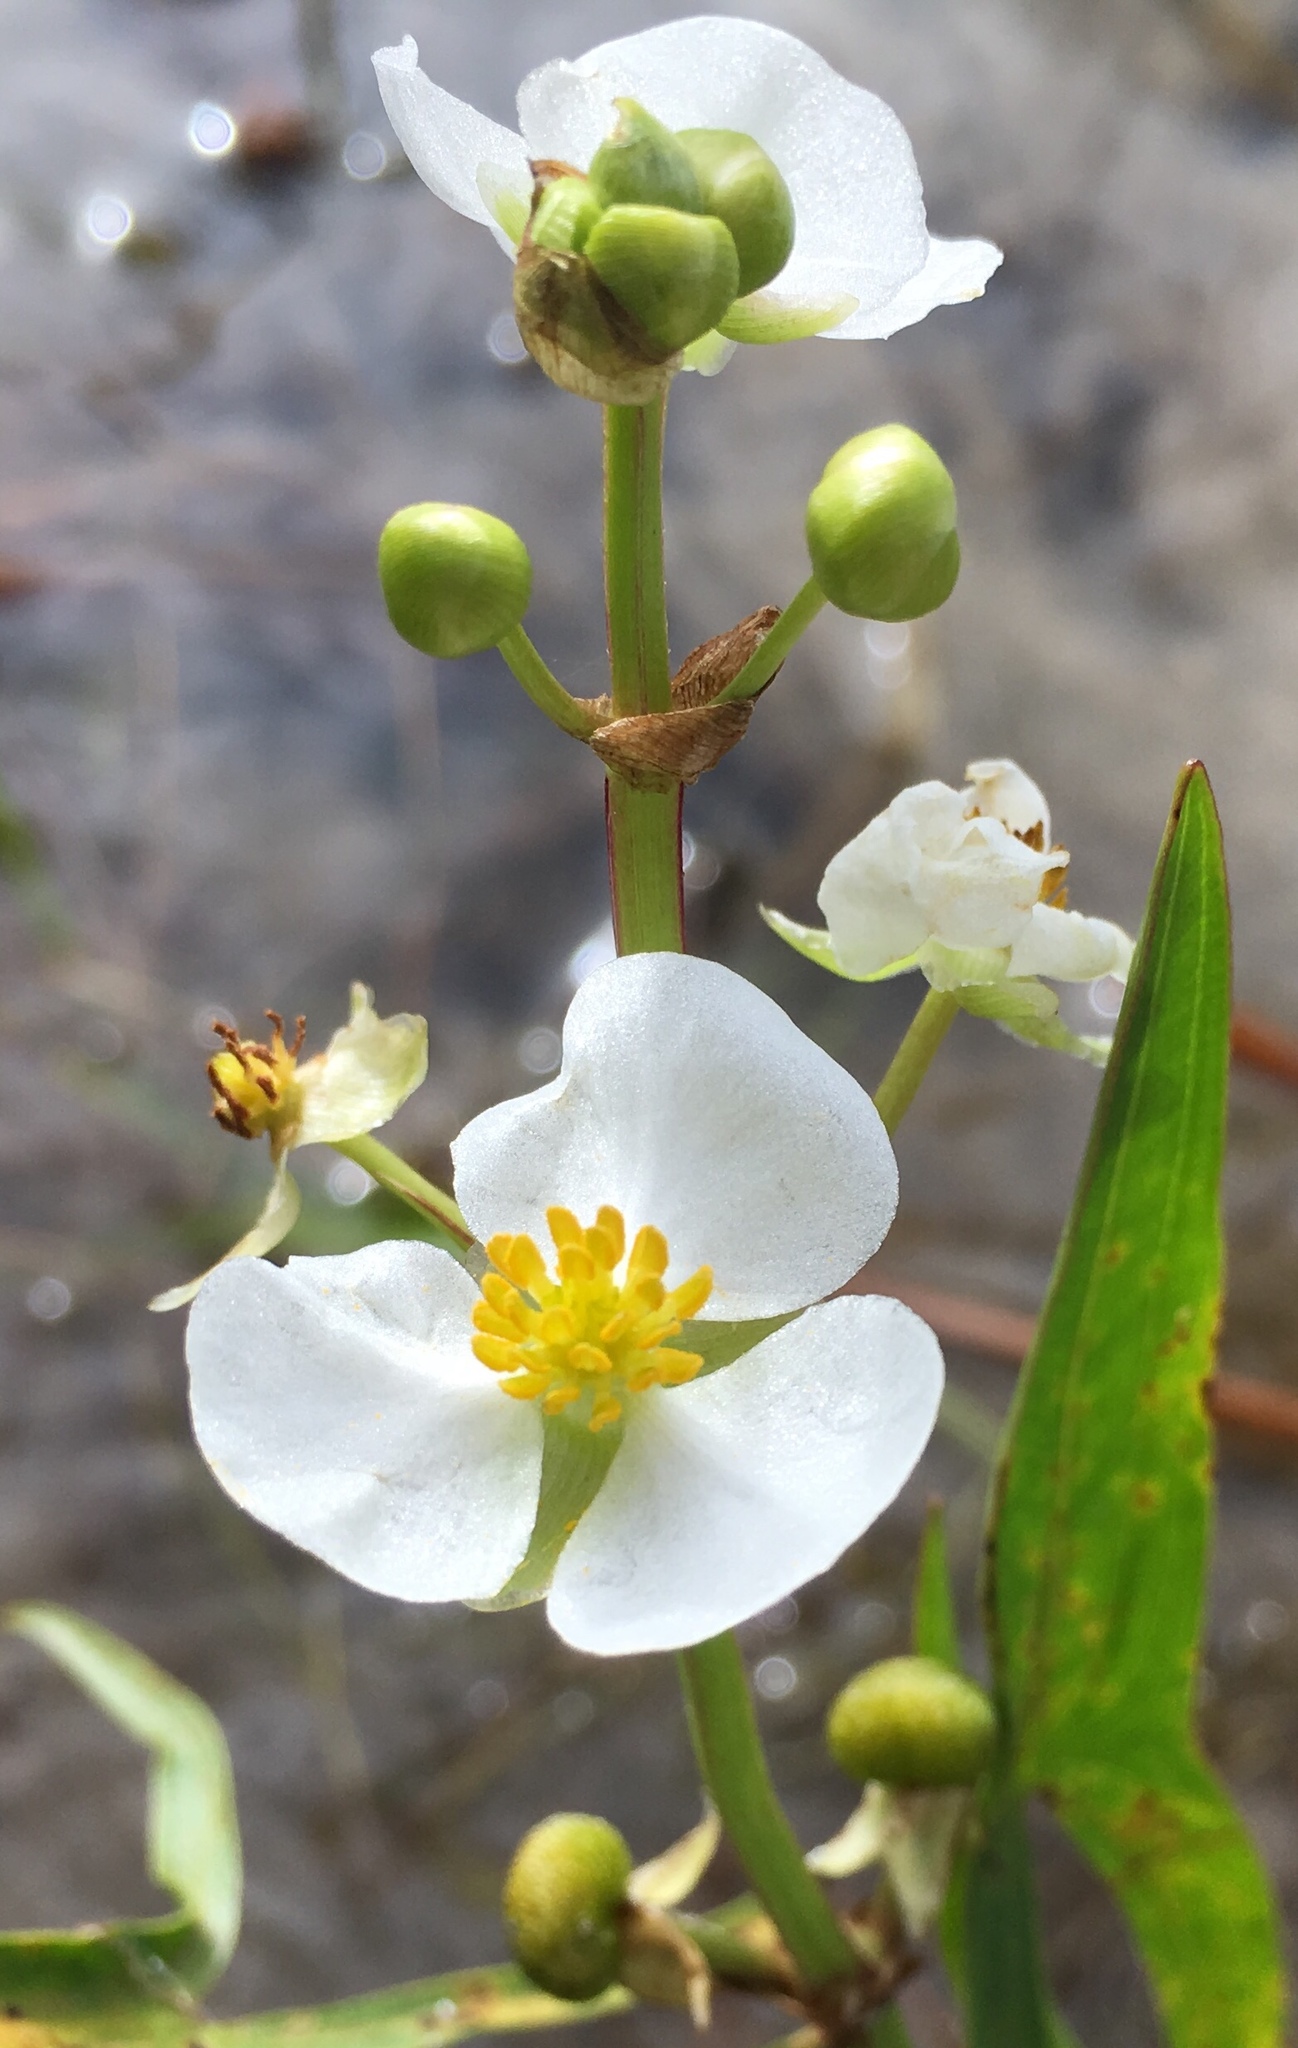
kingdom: Plantae
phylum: Tracheophyta
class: Liliopsida
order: Alismatales
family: Alismataceae
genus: Sagittaria
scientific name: Sagittaria latifolia
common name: Duck-potato
